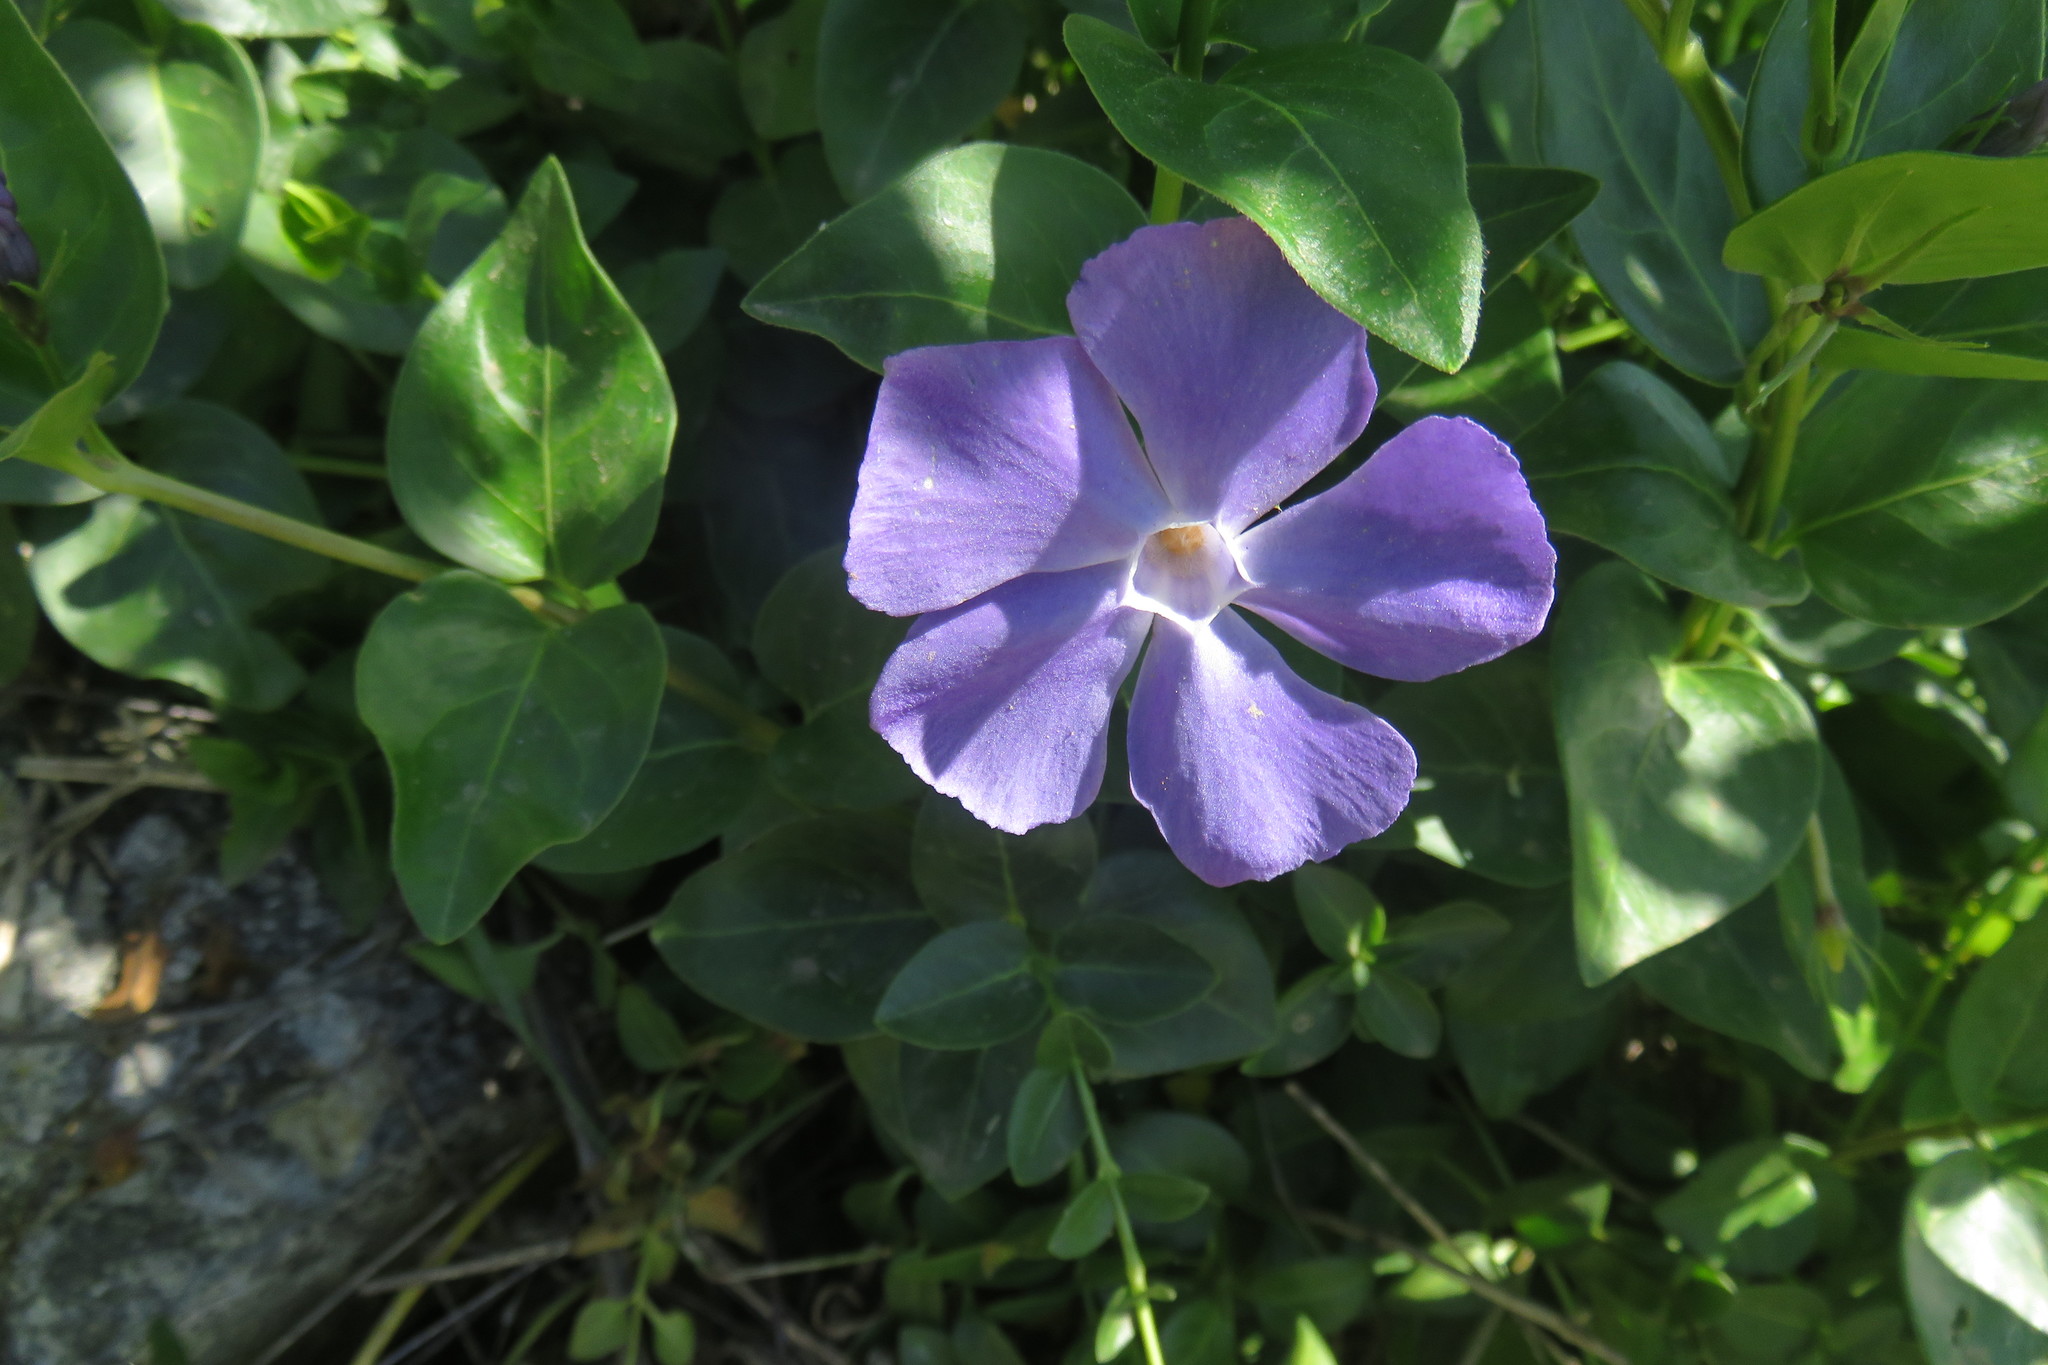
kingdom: Plantae
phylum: Tracheophyta
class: Magnoliopsida
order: Gentianales
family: Apocynaceae
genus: Vinca
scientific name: Vinca major
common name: Greater periwinkle
